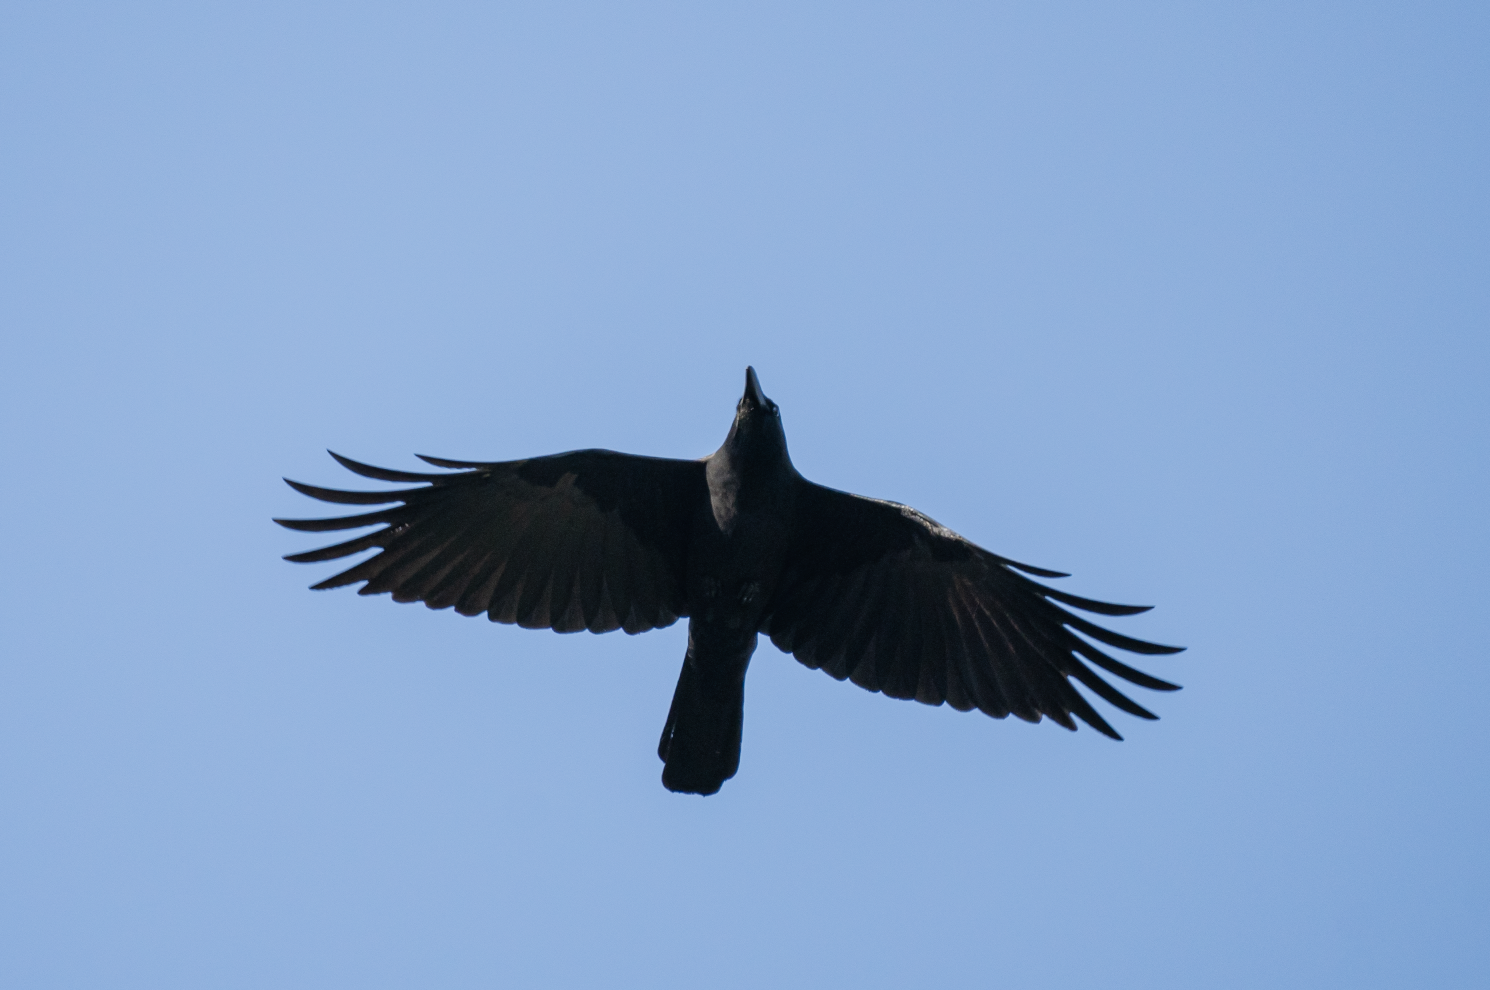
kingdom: Animalia
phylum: Chordata
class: Aves
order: Passeriformes
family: Corvidae
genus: Corvus
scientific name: Corvus macrorhynchos
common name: Large-billed crow
